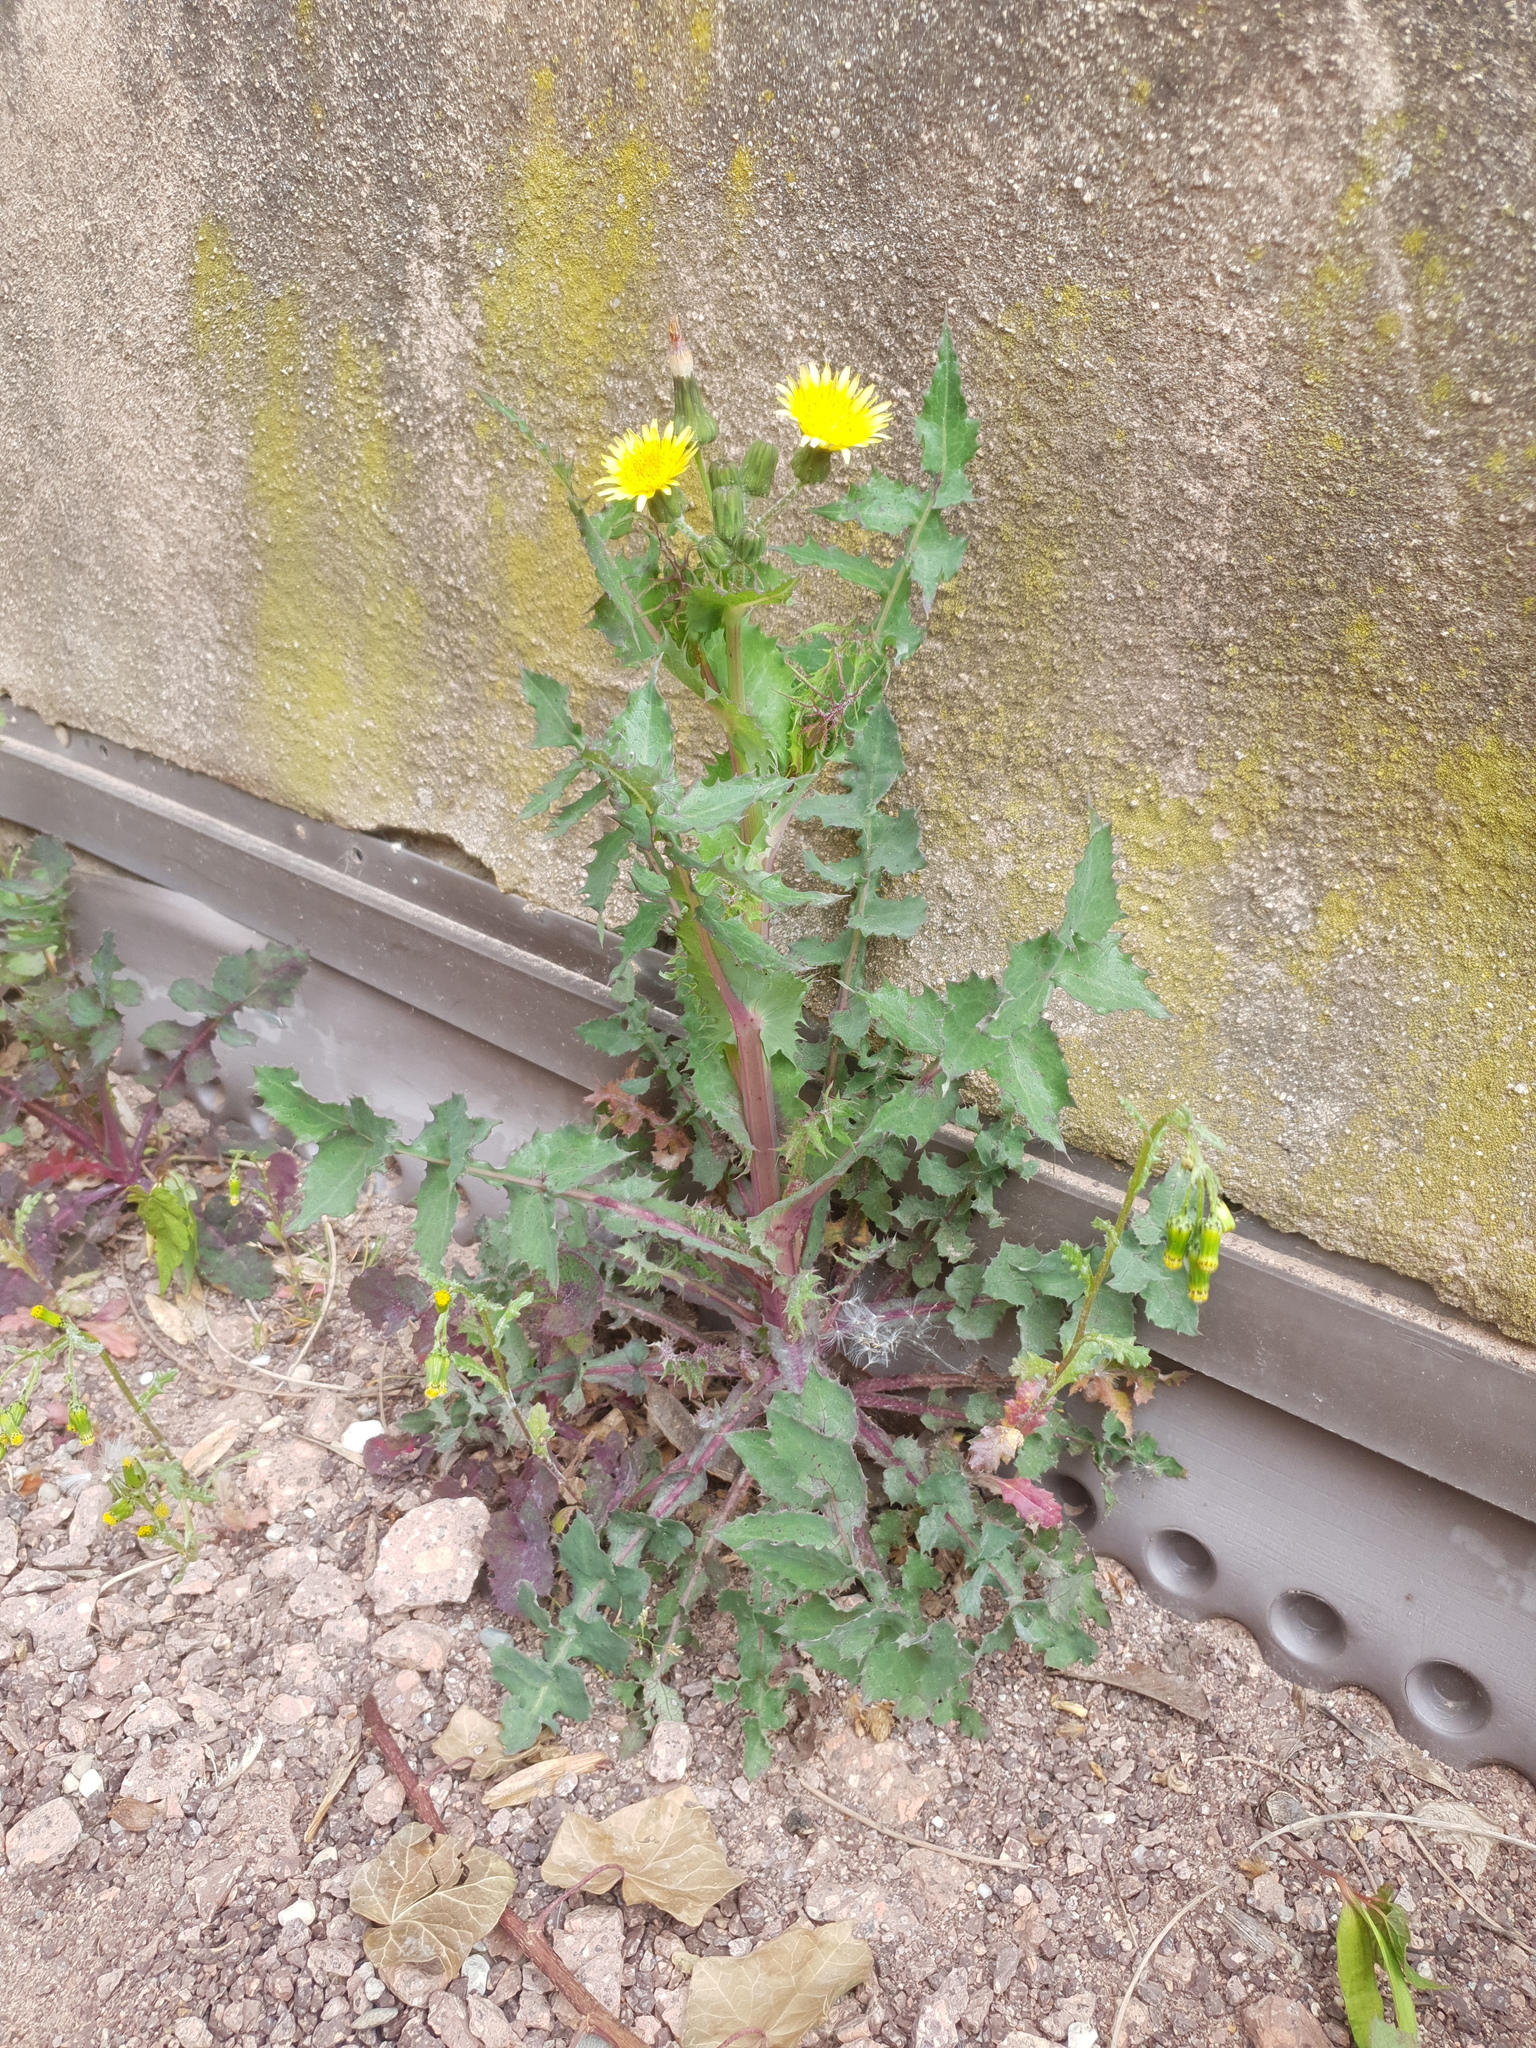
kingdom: Plantae
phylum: Tracheophyta
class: Magnoliopsida
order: Asterales
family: Asteraceae
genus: Sonchus
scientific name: Sonchus oleraceus
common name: Common sowthistle
